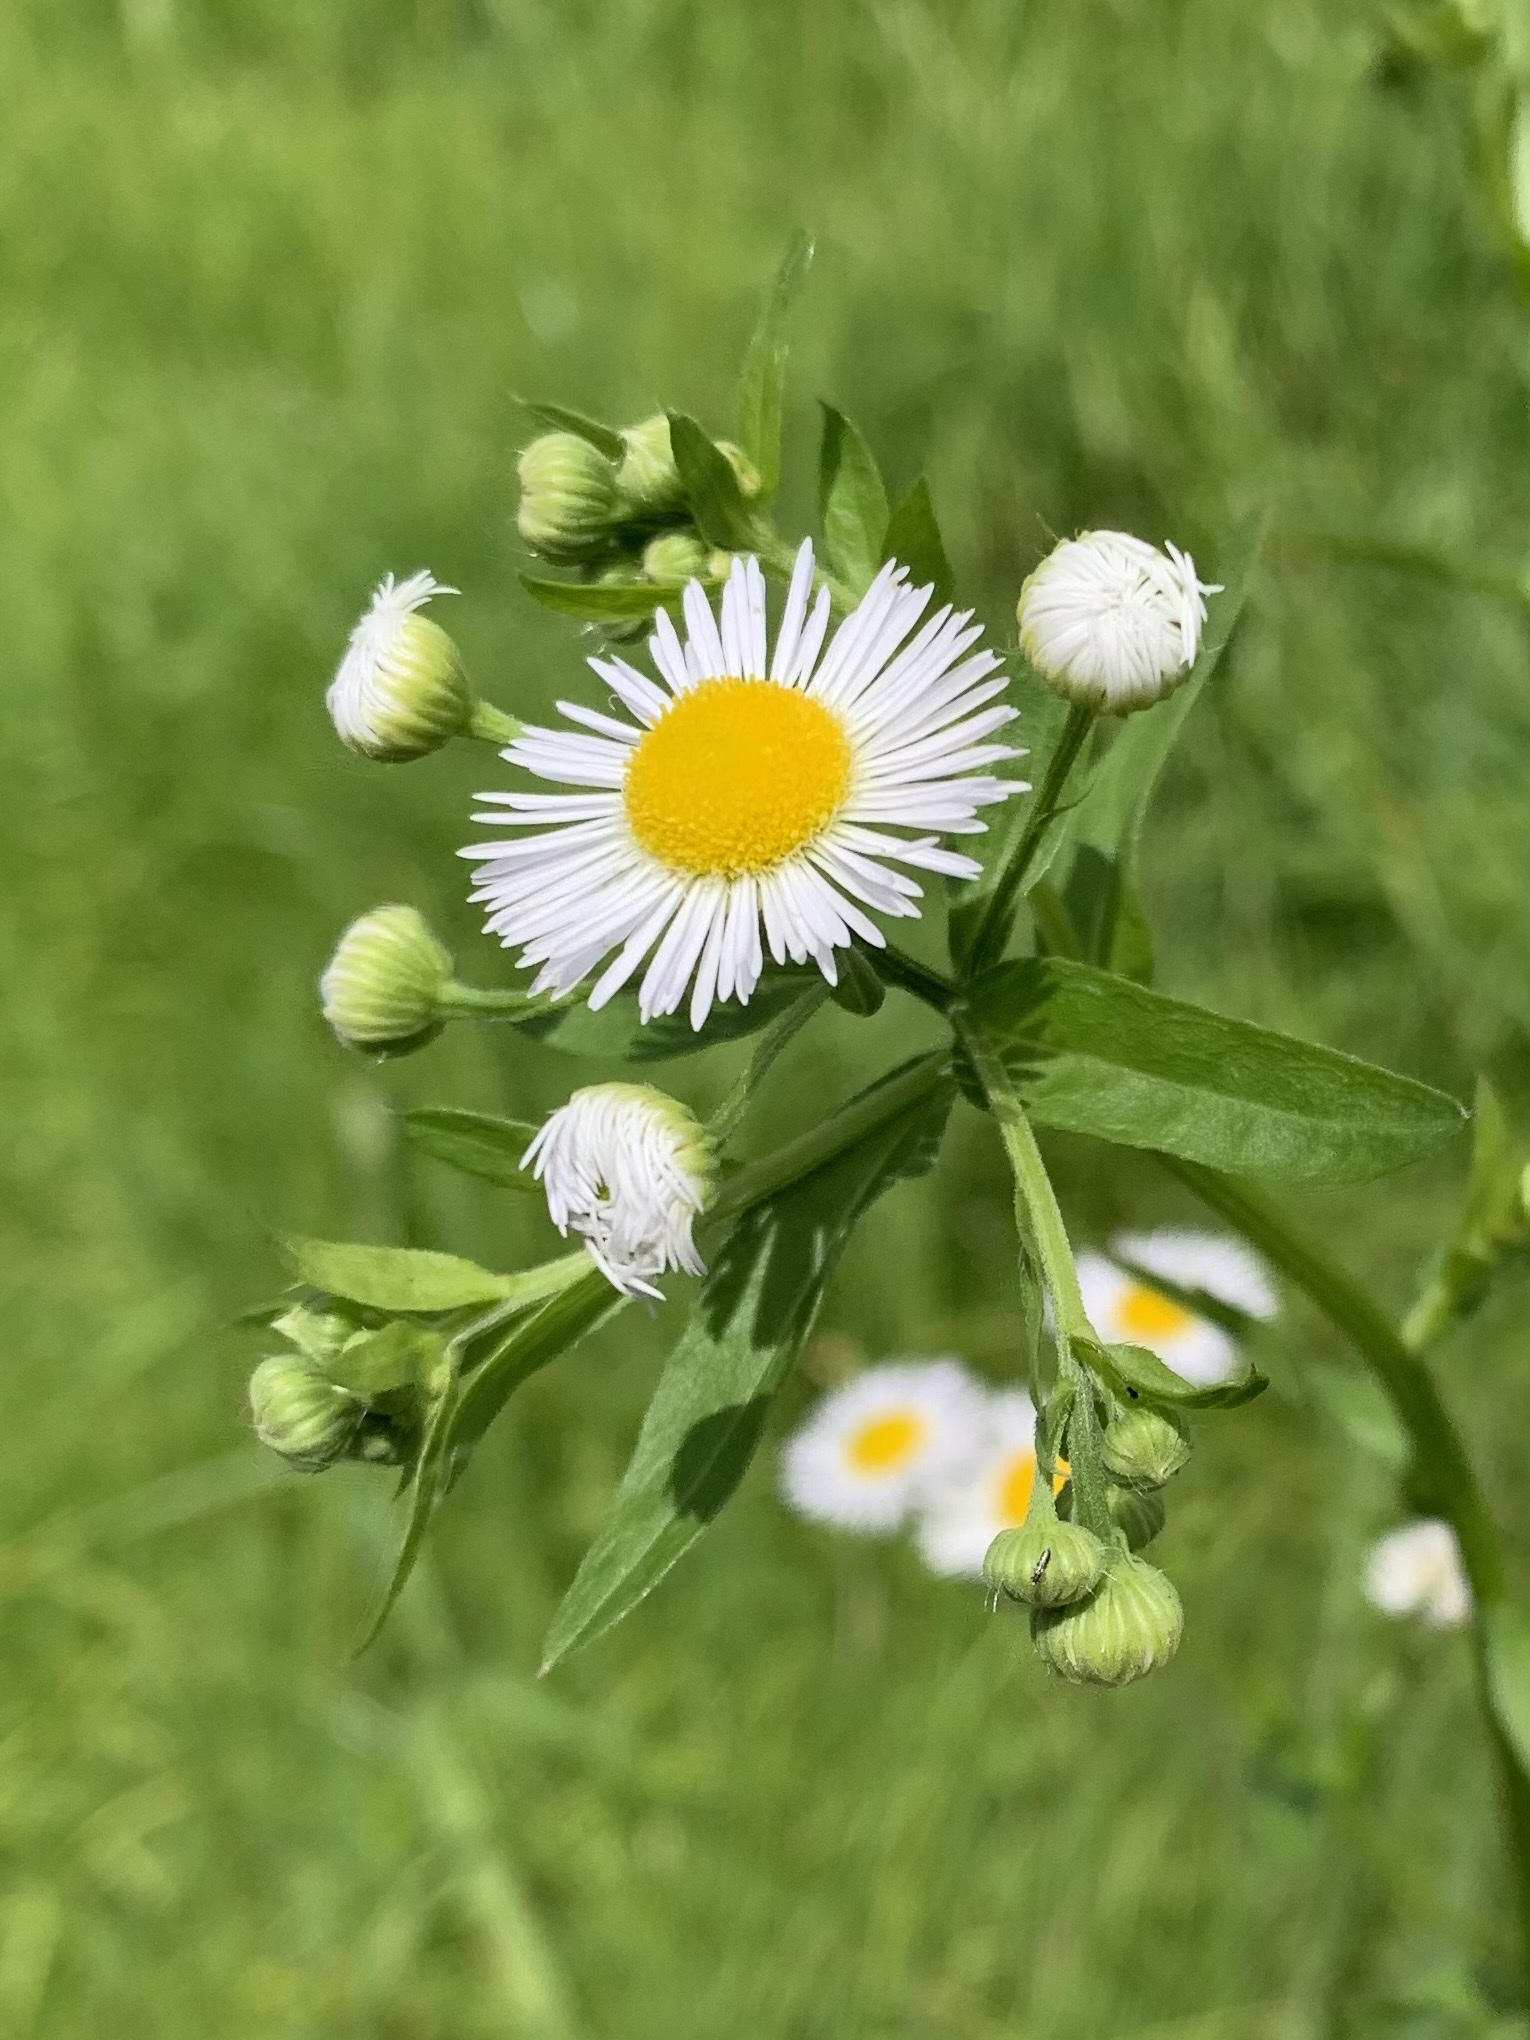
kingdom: Plantae
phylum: Tracheophyta
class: Magnoliopsida
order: Asterales
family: Asteraceae
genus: Erigeron
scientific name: Erigeron annuus
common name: Tall fleabane
